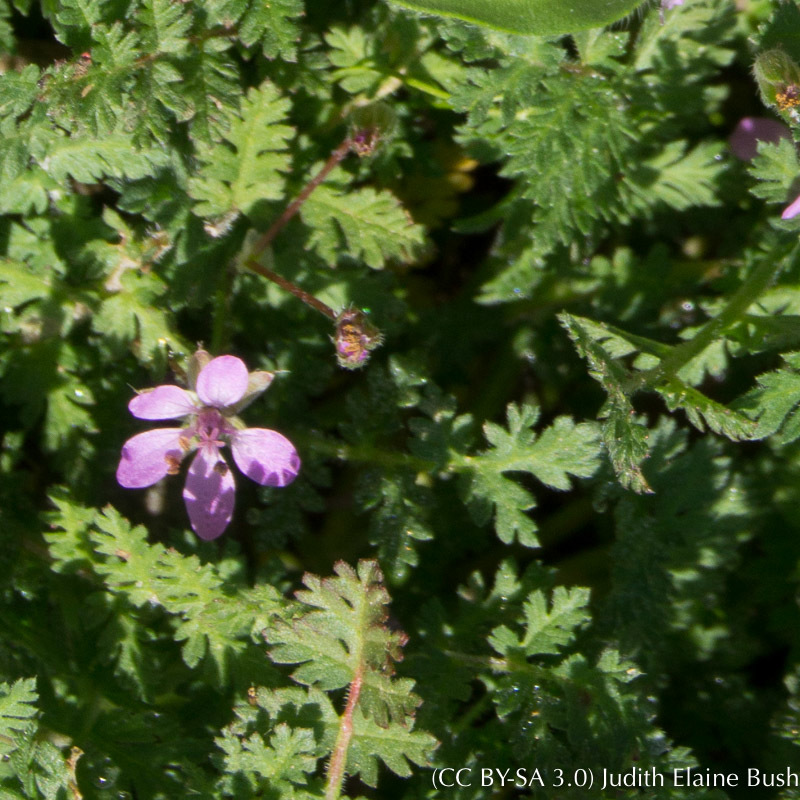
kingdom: Plantae
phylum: Tracheophyta
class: Magnoliopsida
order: Geraniales
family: Geraniaceae
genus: Erodium
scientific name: Erodium cicutarium
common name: Common stork's-bill
